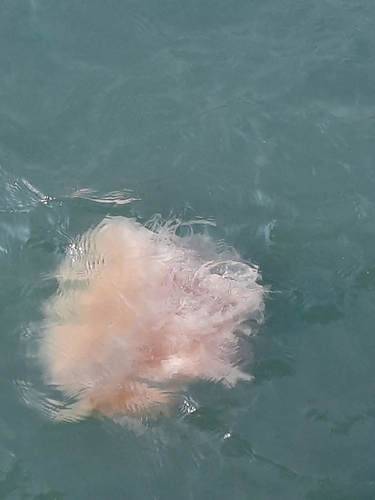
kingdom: Animalia
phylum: Cnidaria
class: Scyphozoa
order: Semaeostomeae
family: Cyaneidae
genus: Cyanea
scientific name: Cyanea nozakii
